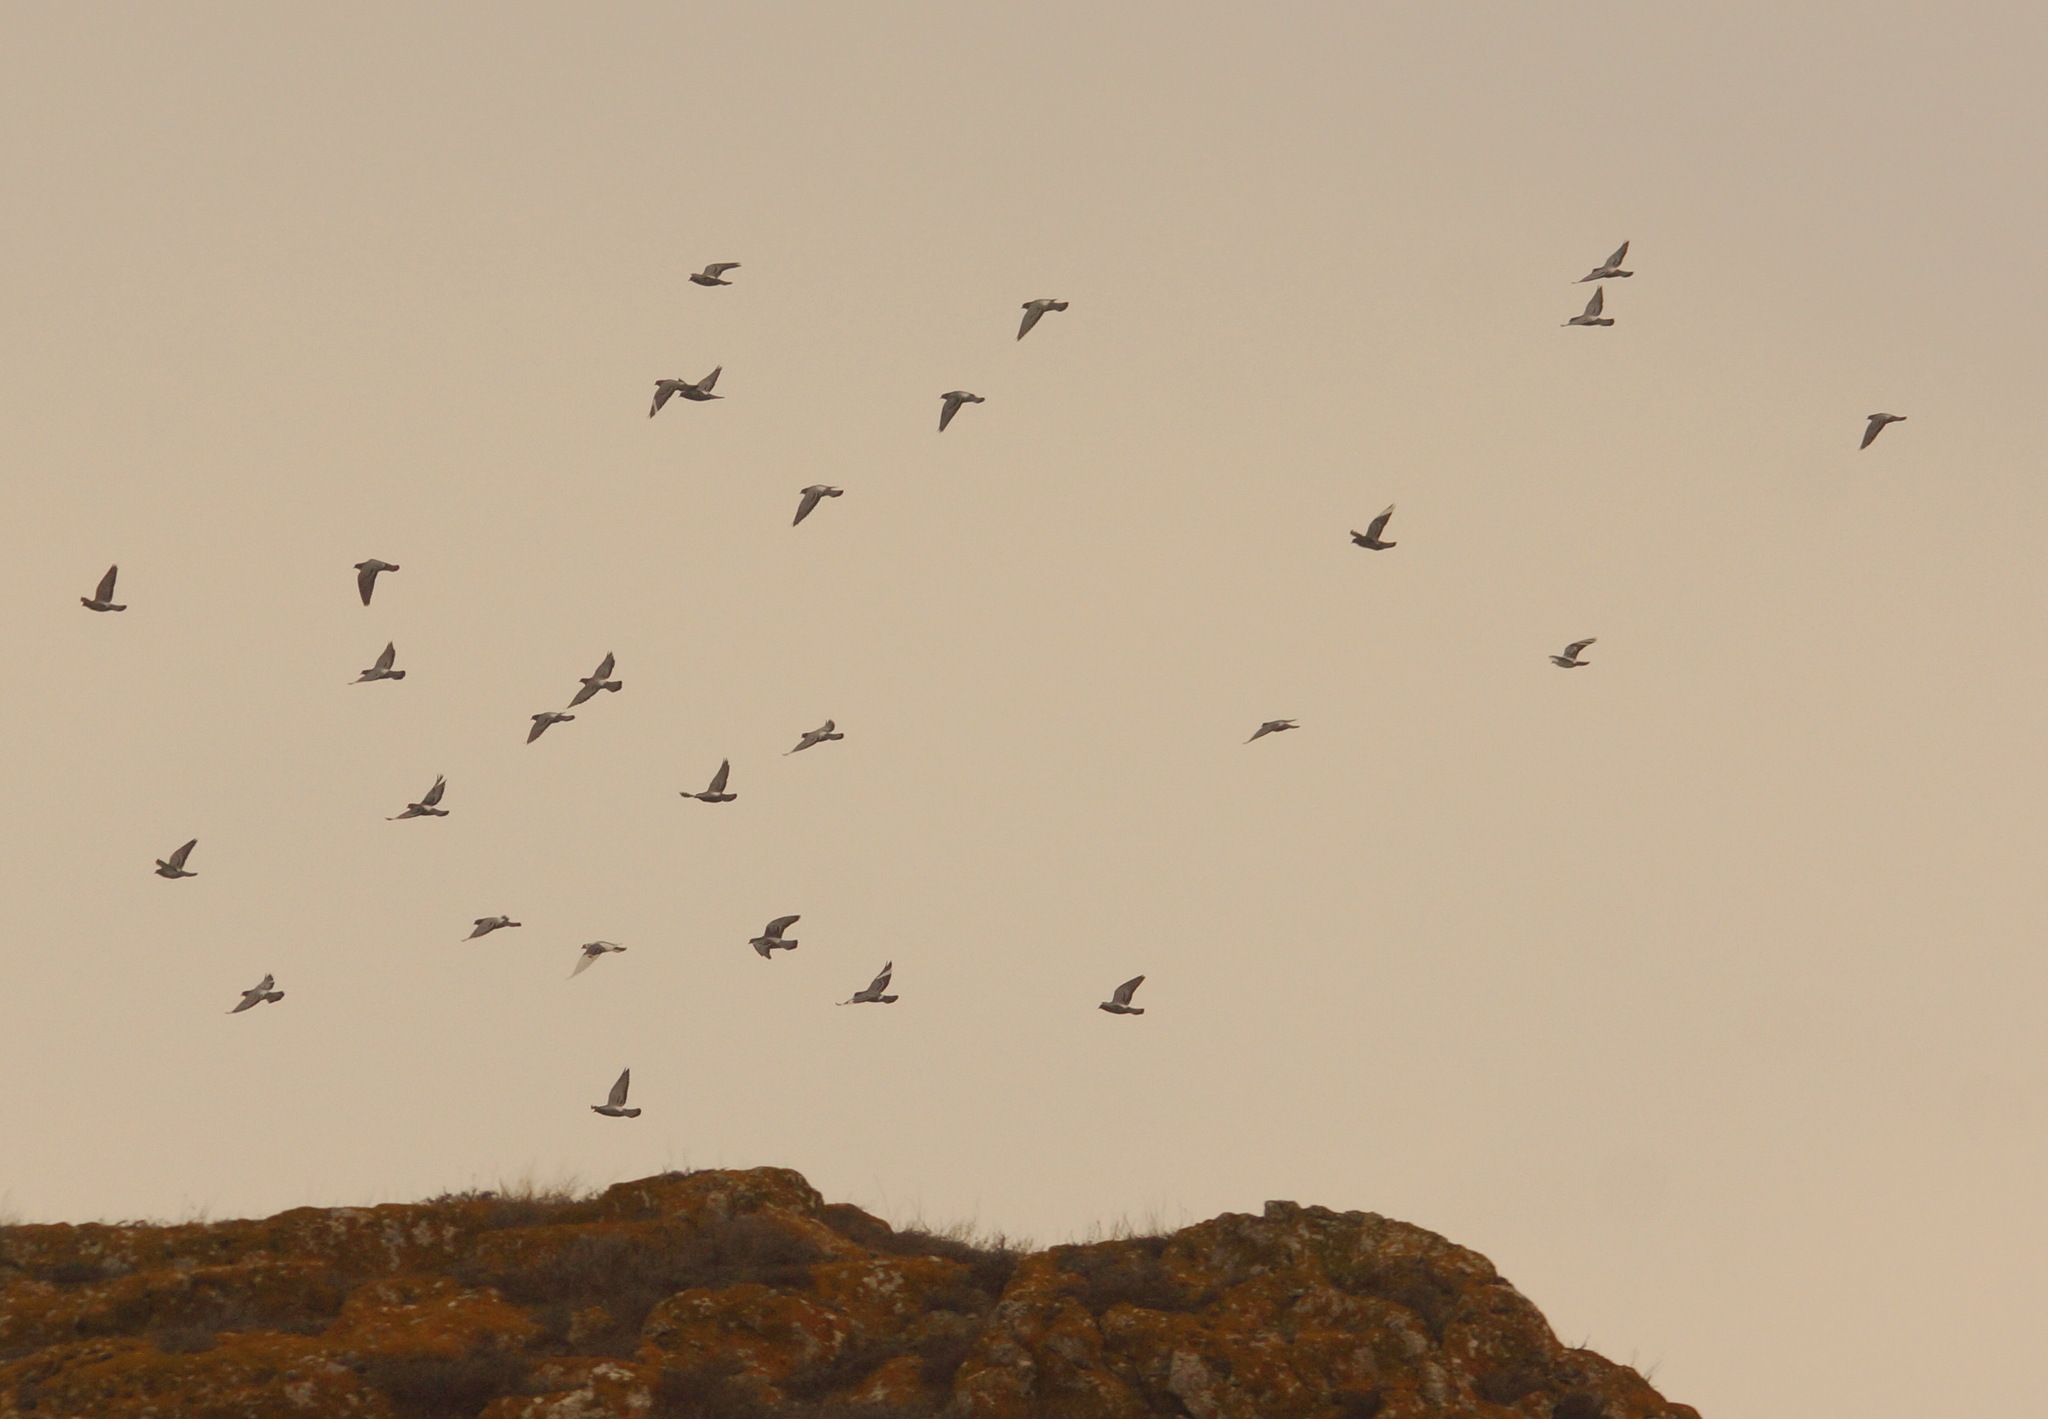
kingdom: Animalia
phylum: Chordata
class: Aves
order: Columbiformes
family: Columbidae
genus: Columba
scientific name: Columba livia
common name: Rock pigeon
